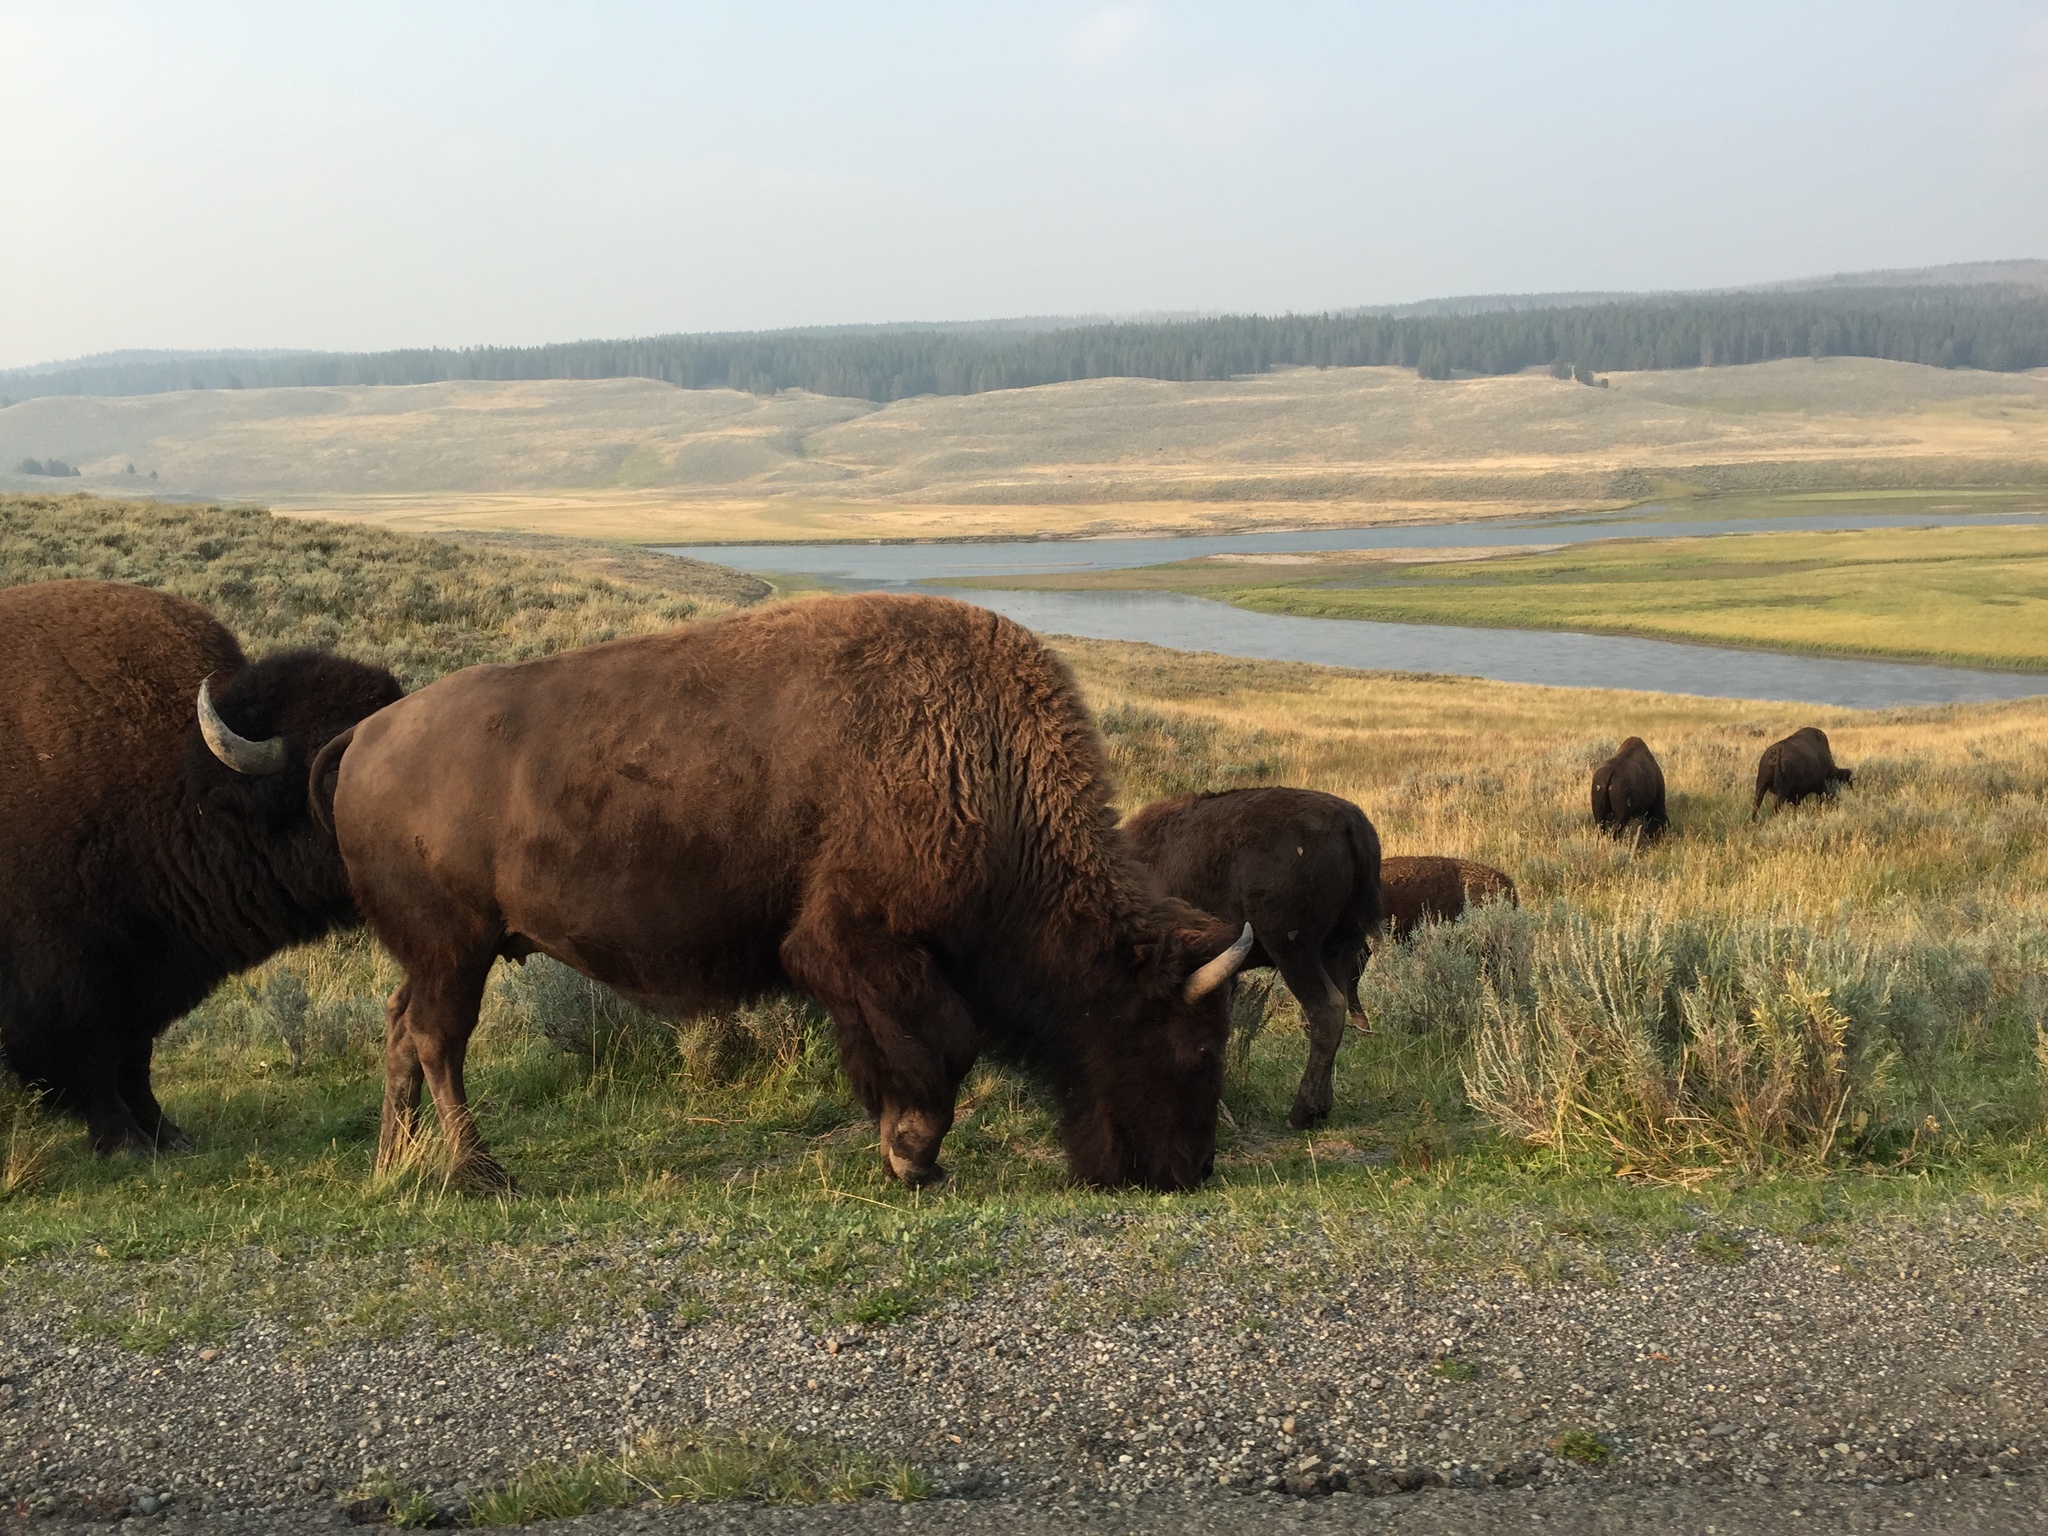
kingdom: Animalia
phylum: Chordata
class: Mammalia
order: Artiodactyla
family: Bovidae
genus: Bison
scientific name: Bison bison
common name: American bison
